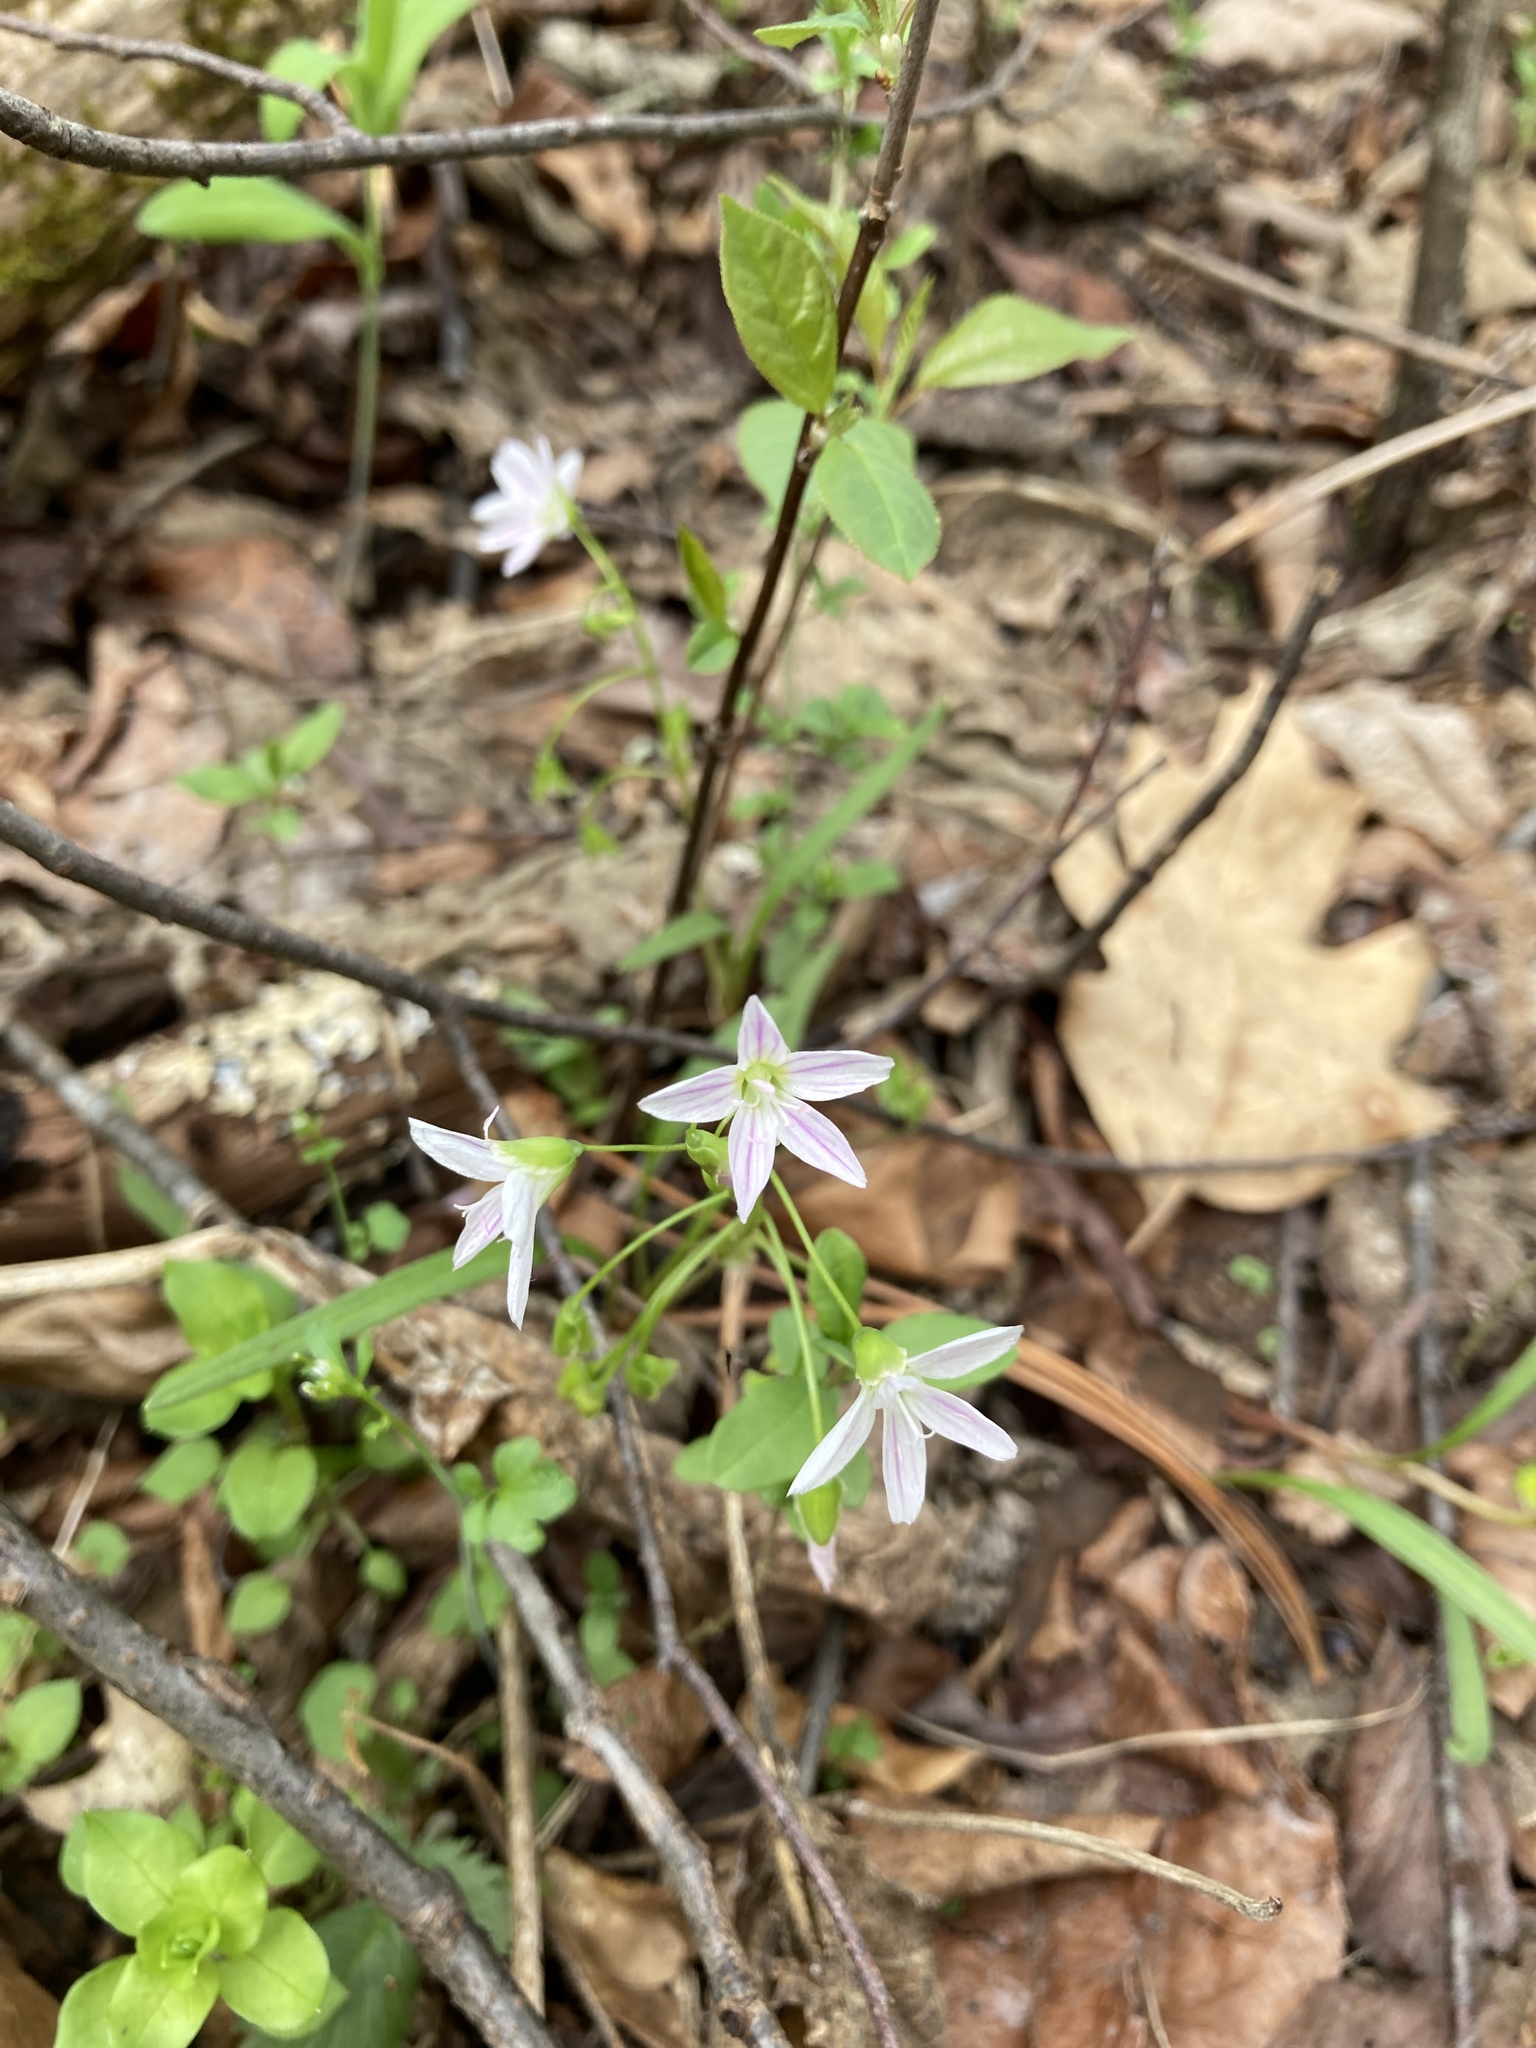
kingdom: Plantae
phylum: Tracheophyta
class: Magnoliopsida
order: Caryophyllales
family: Montiaceae
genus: Claytonia
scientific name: Claytonia virginica
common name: Virginia springbeauty
